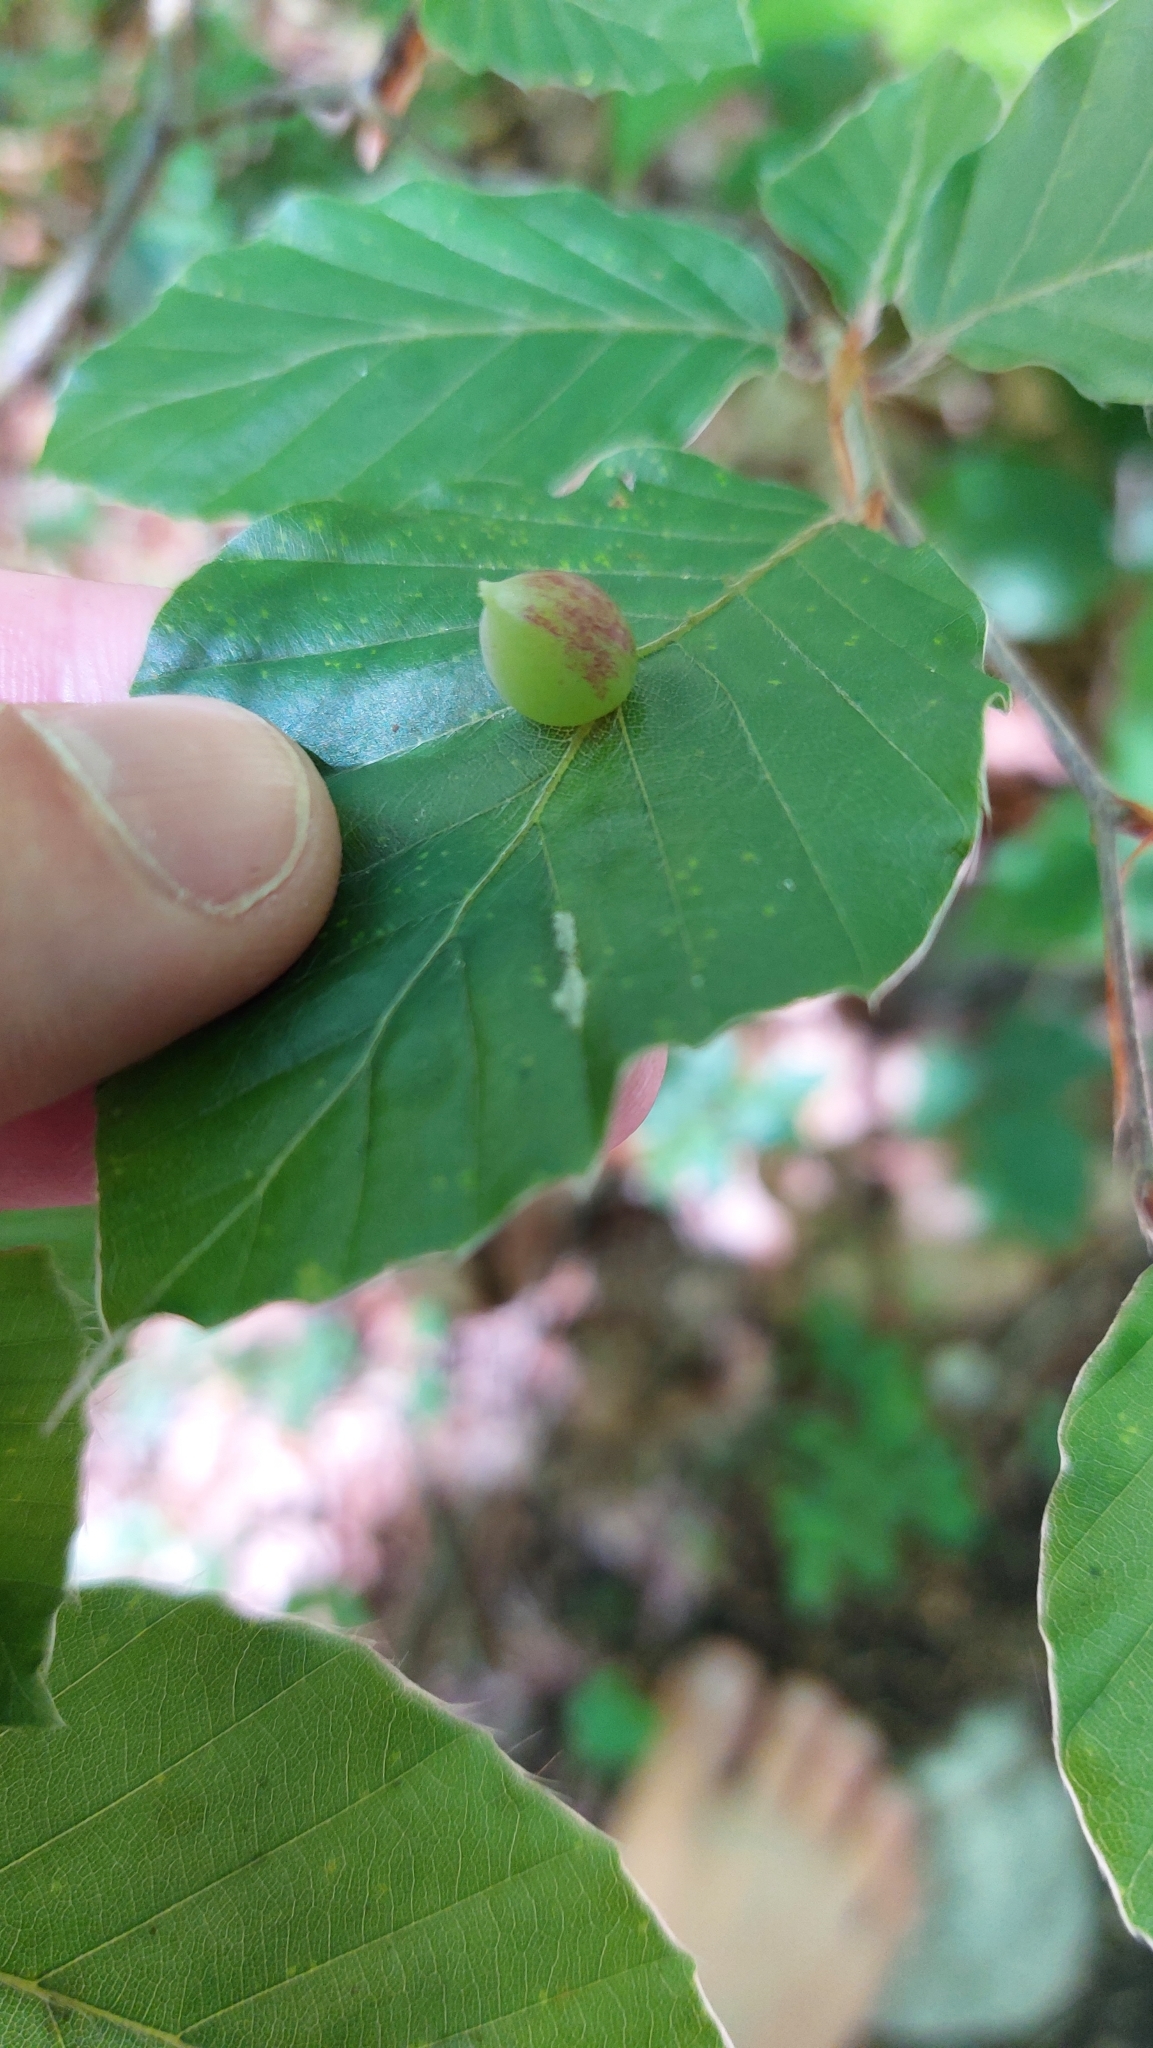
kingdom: Animalia
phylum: Arthropoda
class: Insecta
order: Diptera
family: Cecidomyiidae
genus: Mikiola
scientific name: Mikiola fagi
